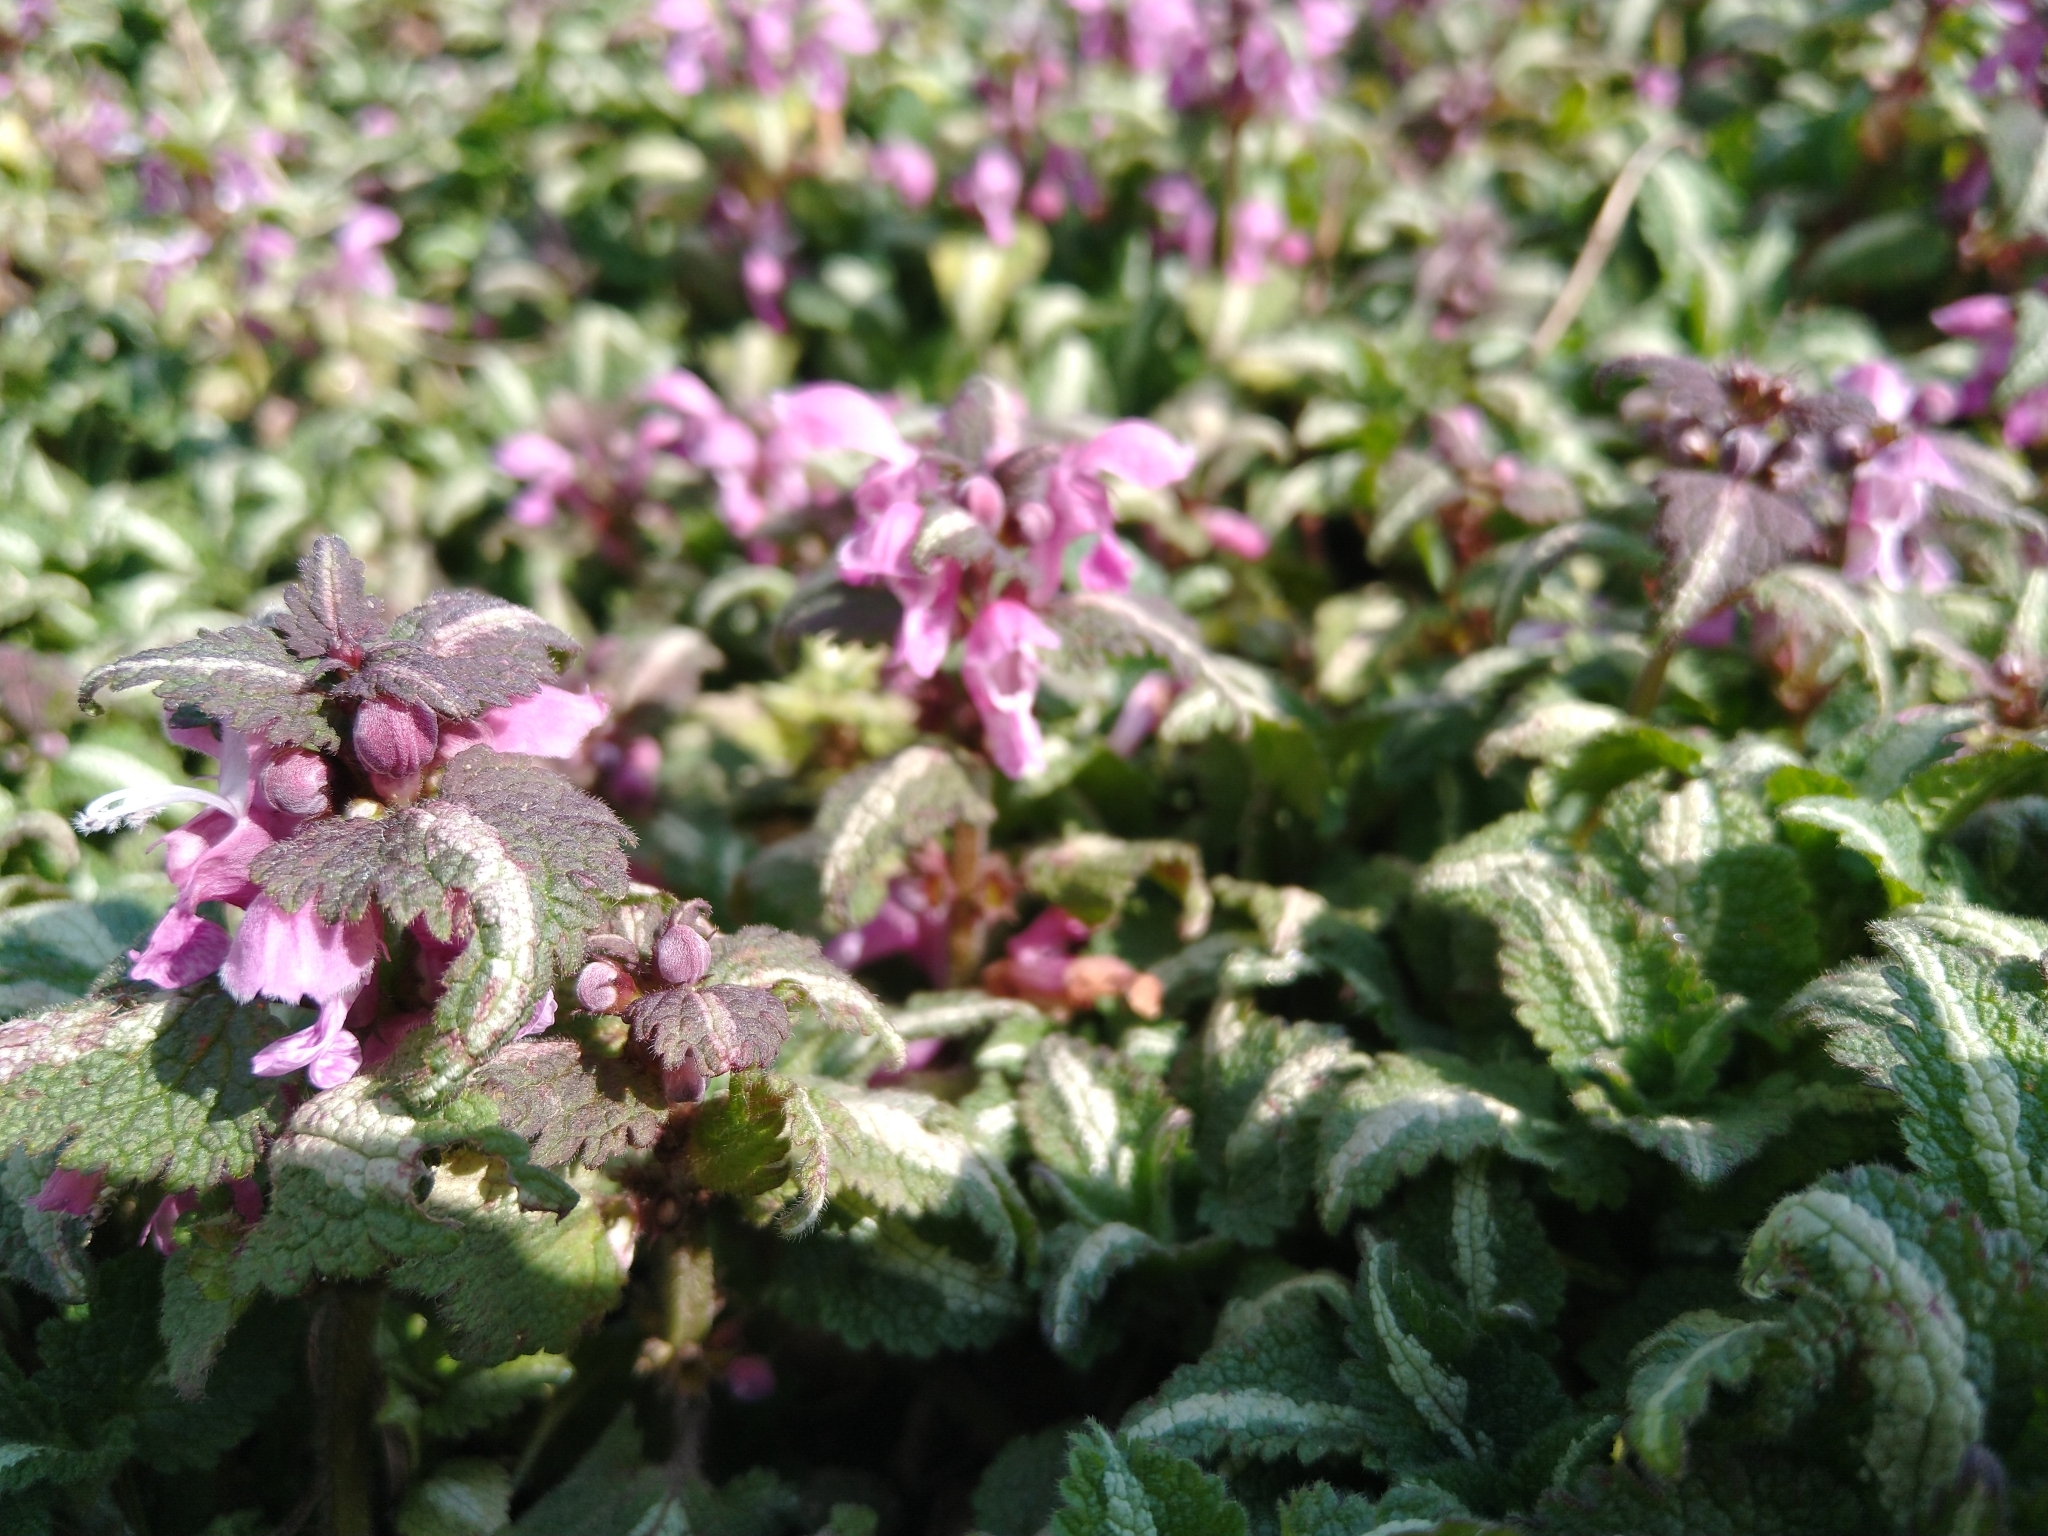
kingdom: Plantae
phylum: Tracheophyta
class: Magnoliopsida
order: Lamiales
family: Lamiaceae
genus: Lamium
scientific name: Lamium maculatum
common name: Spotted dead-nettle
